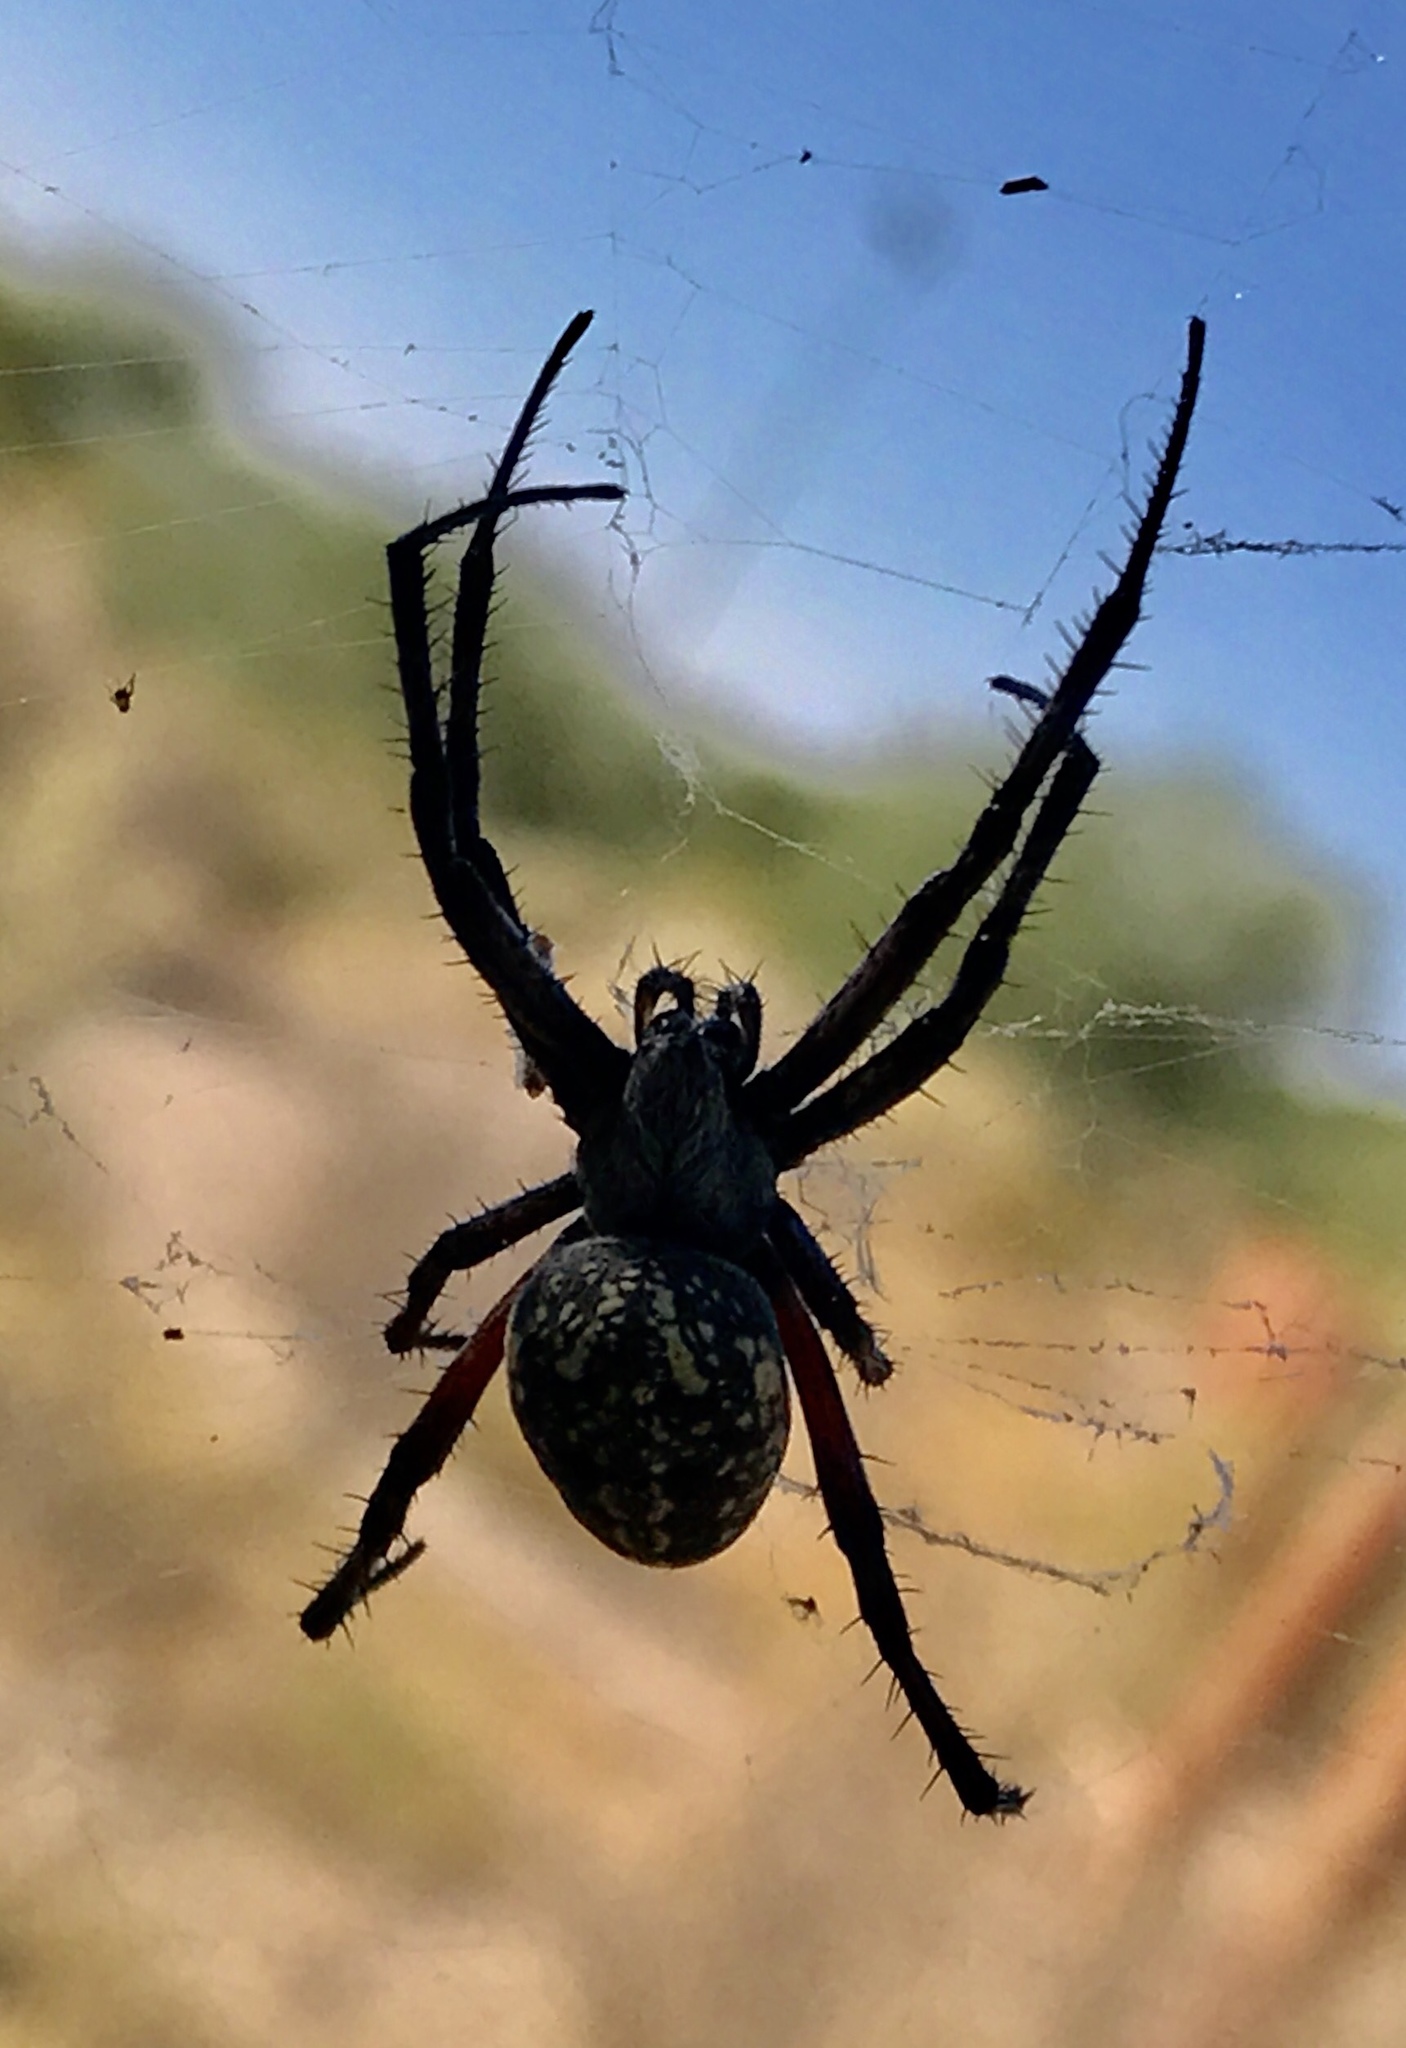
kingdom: Animalia
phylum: Arthropoda
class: Arachnida
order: Araneae
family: Araneidae
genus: Neoscona
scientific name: Neoscona oaxacensis
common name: Orb weavers
